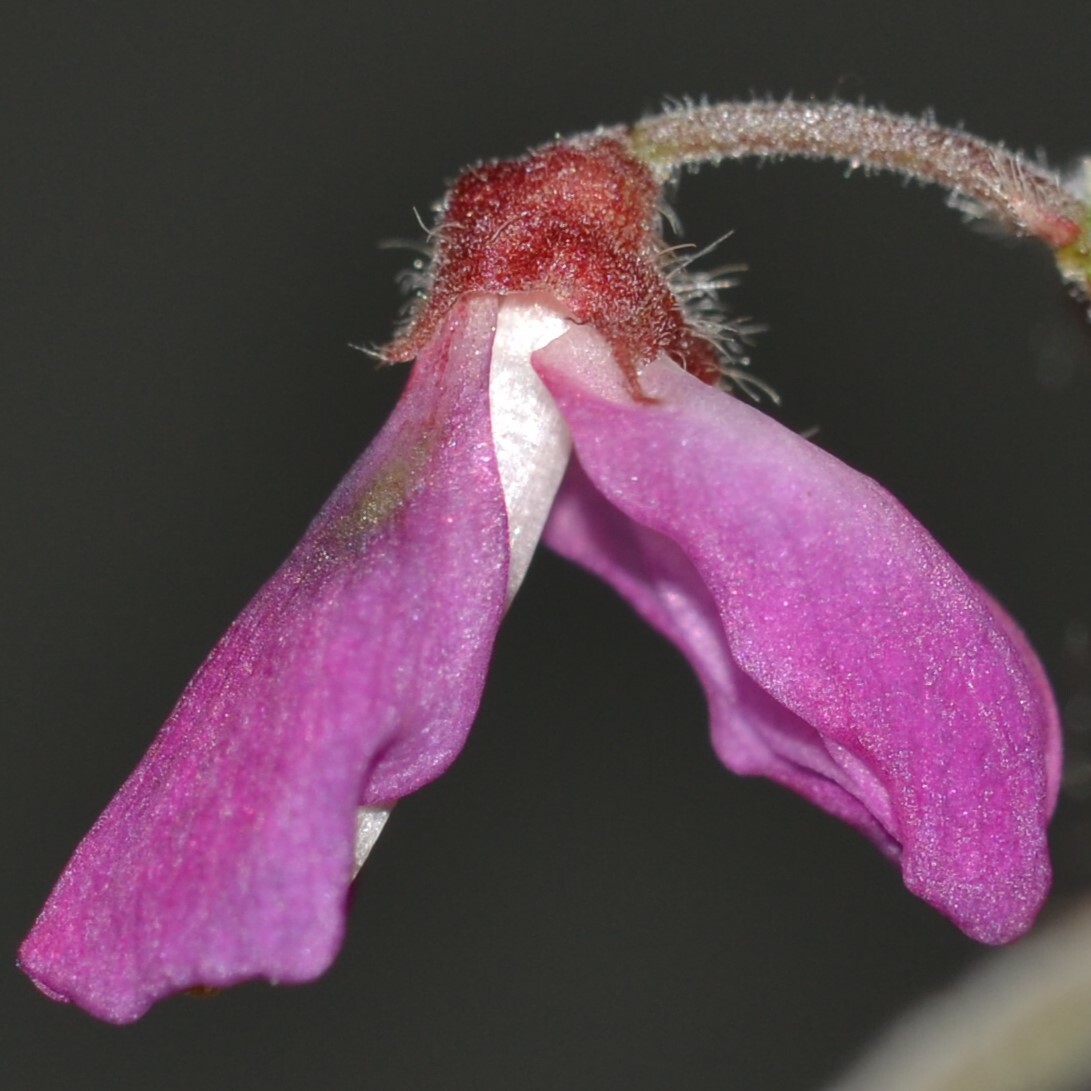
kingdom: Plantae
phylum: Tracheophyta
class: Magnoliopsida
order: Fabales
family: Fabaceae
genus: Desmodium
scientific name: Desmodium incanum
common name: Tickclover
